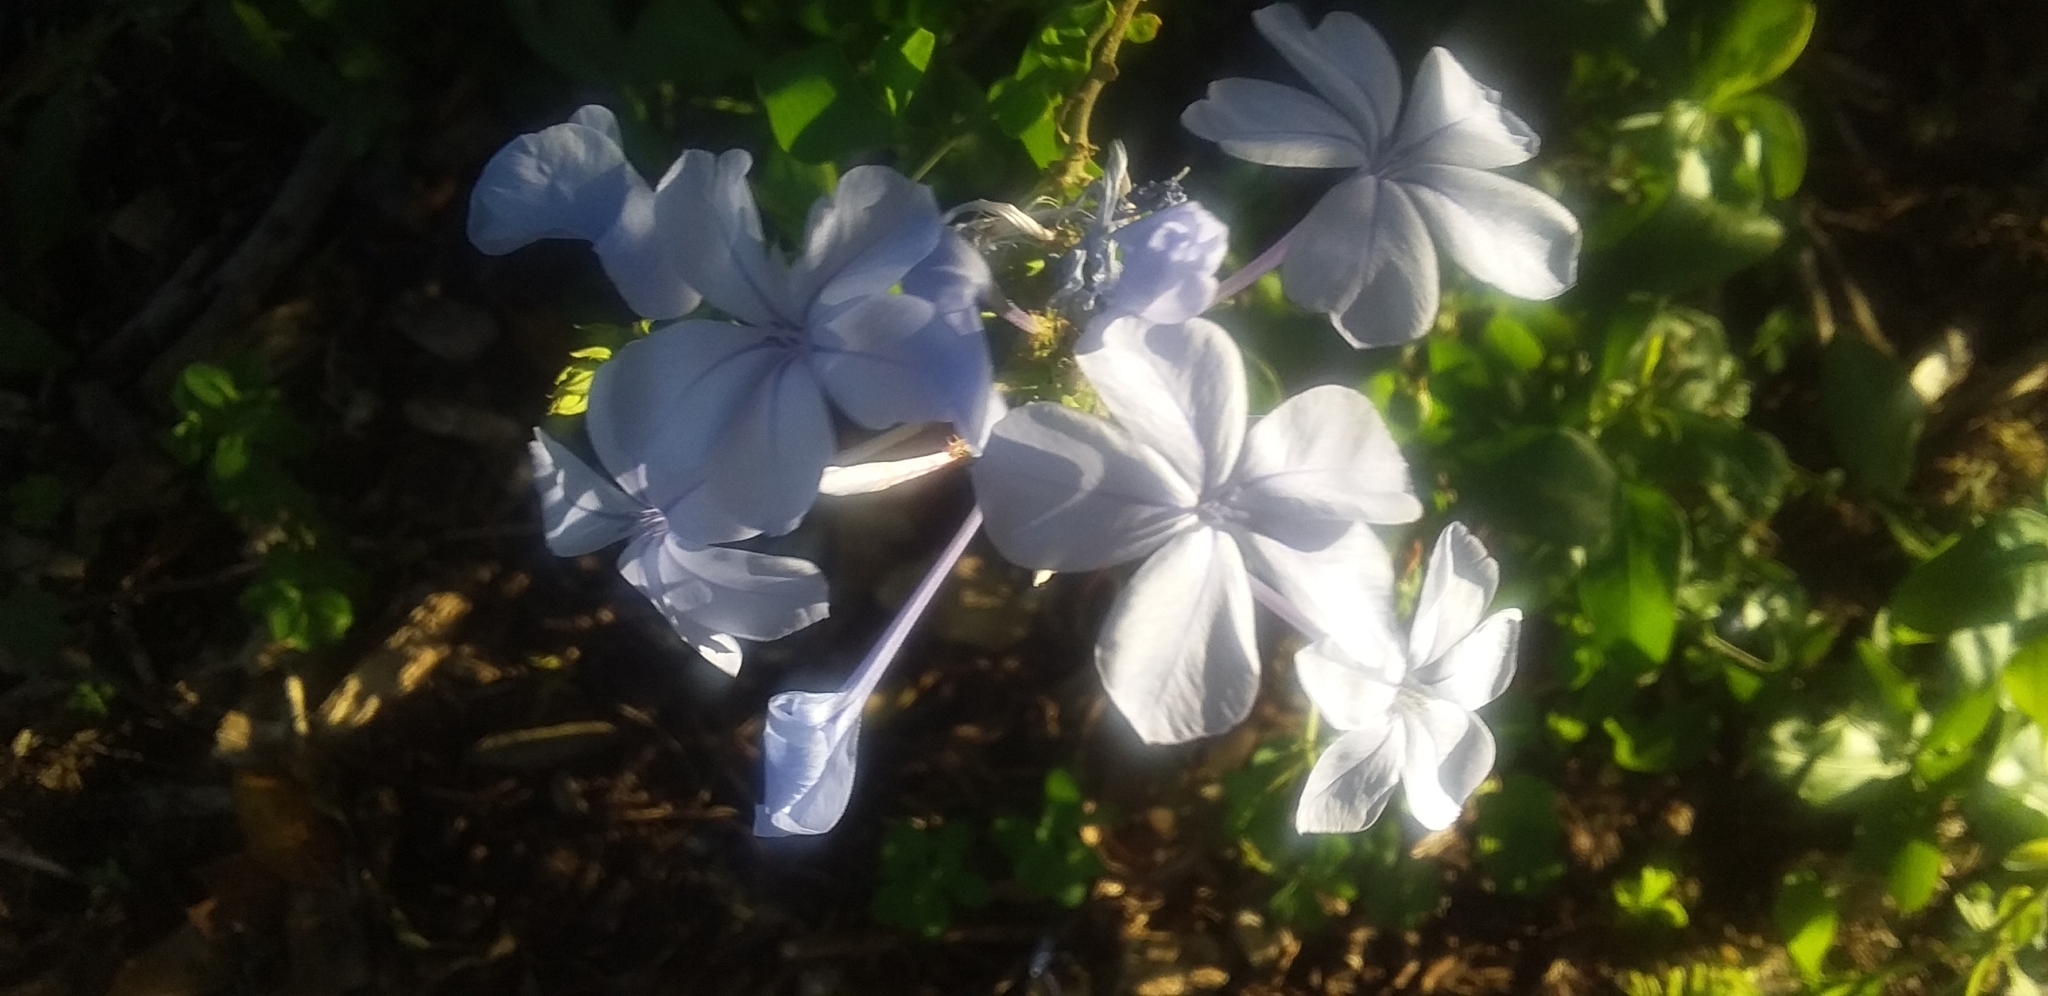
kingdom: Plantae
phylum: Tracheophyta
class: Magnoliopsida
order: Caryophyllales
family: Plumbaginaceae
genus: Plumbago
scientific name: Plumbago auriculata
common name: Cape leadwort
